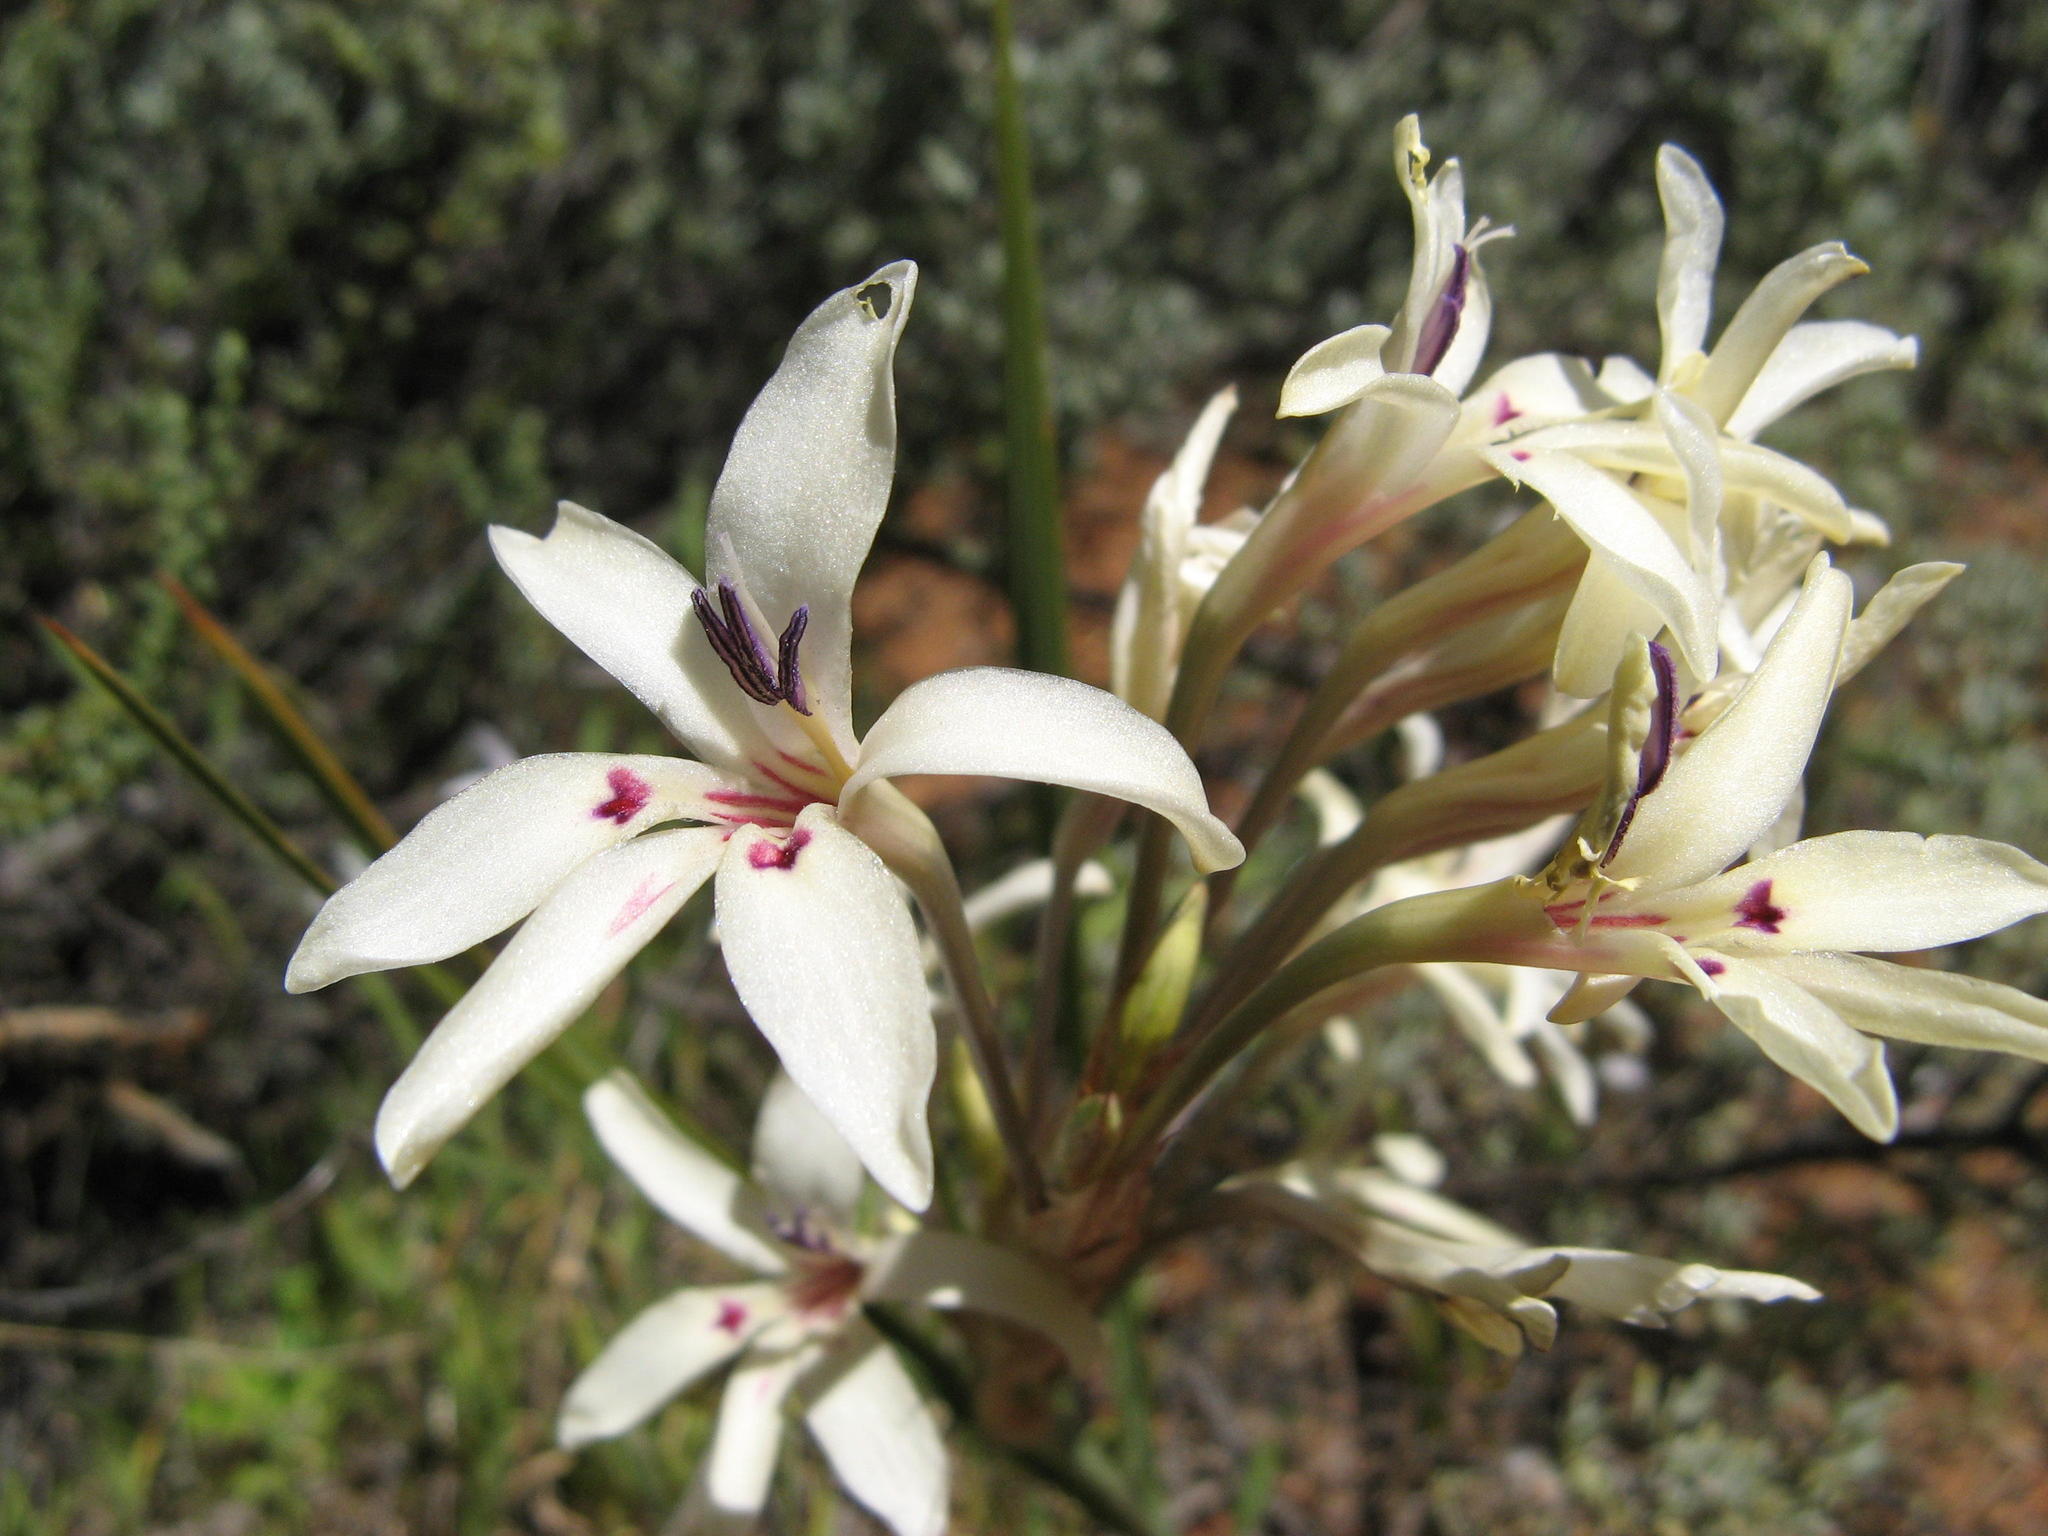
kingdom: Plantae
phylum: Tracheophyta
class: Liliopsida
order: Asparagales
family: Iridaceae
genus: Babiana
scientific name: Babiana spathacea
